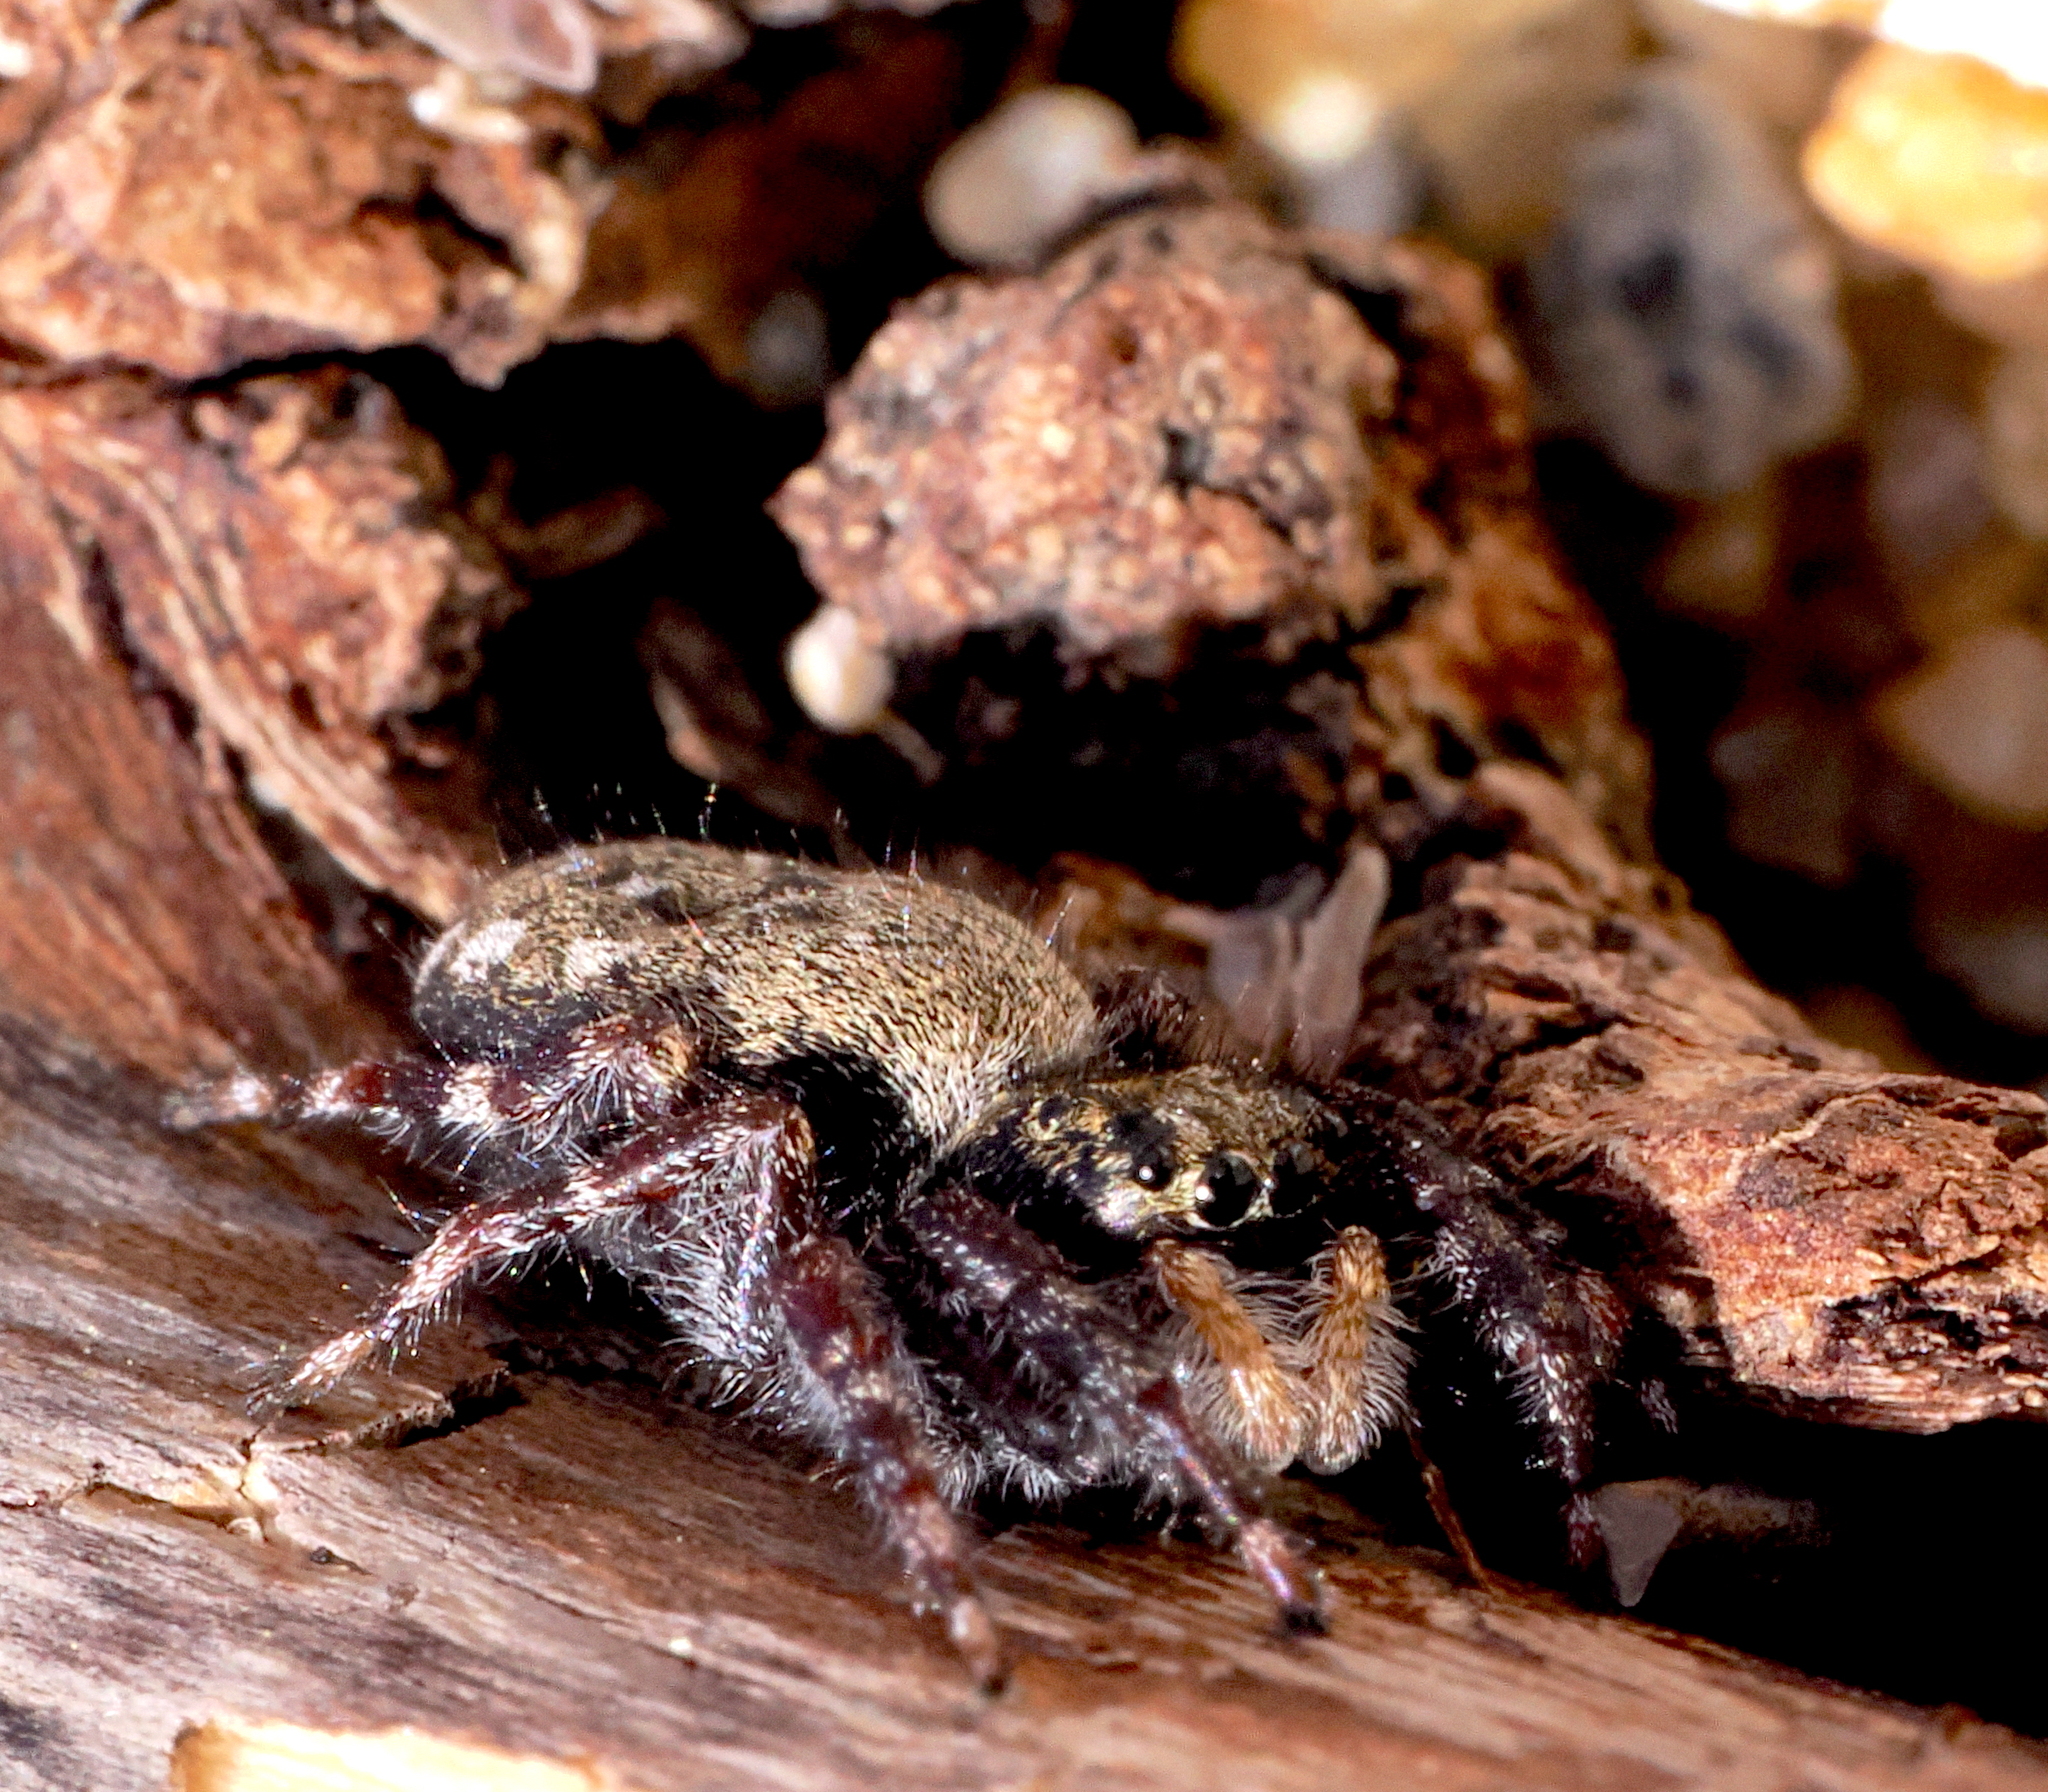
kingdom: Animalia
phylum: Arthropoda
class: Arachnida
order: Araneae
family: Salticidae
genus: Terralonus
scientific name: Terralonus californicus
